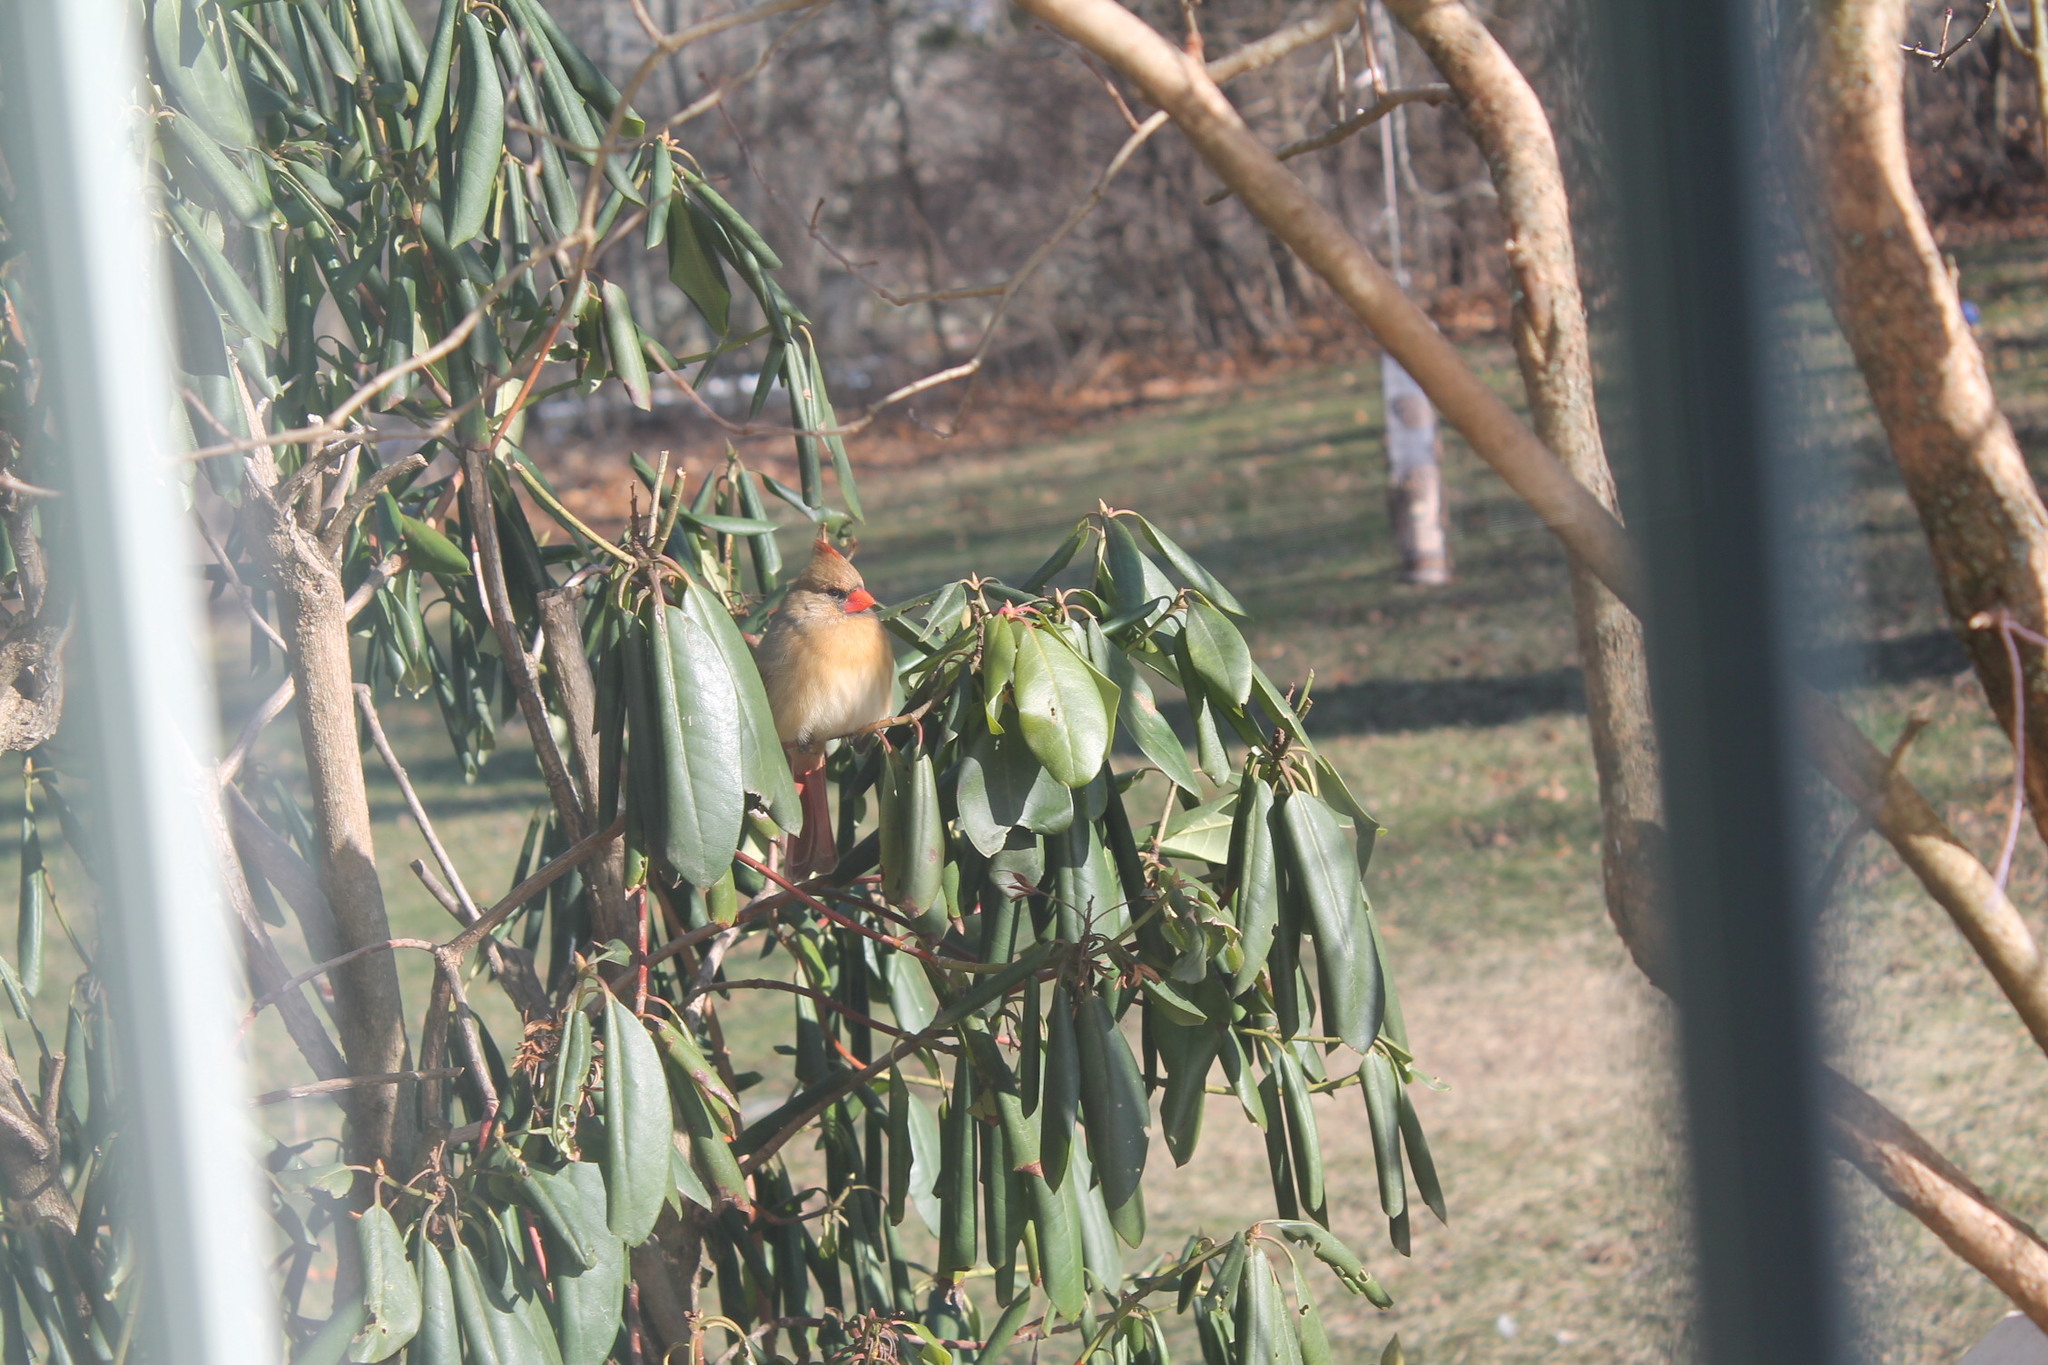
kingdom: Animalia
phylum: Chordata
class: Aves
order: Passeriformes
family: Cardinalidae
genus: Cardinalis
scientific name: Cardinalis cardinalis
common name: Northern cardinal
